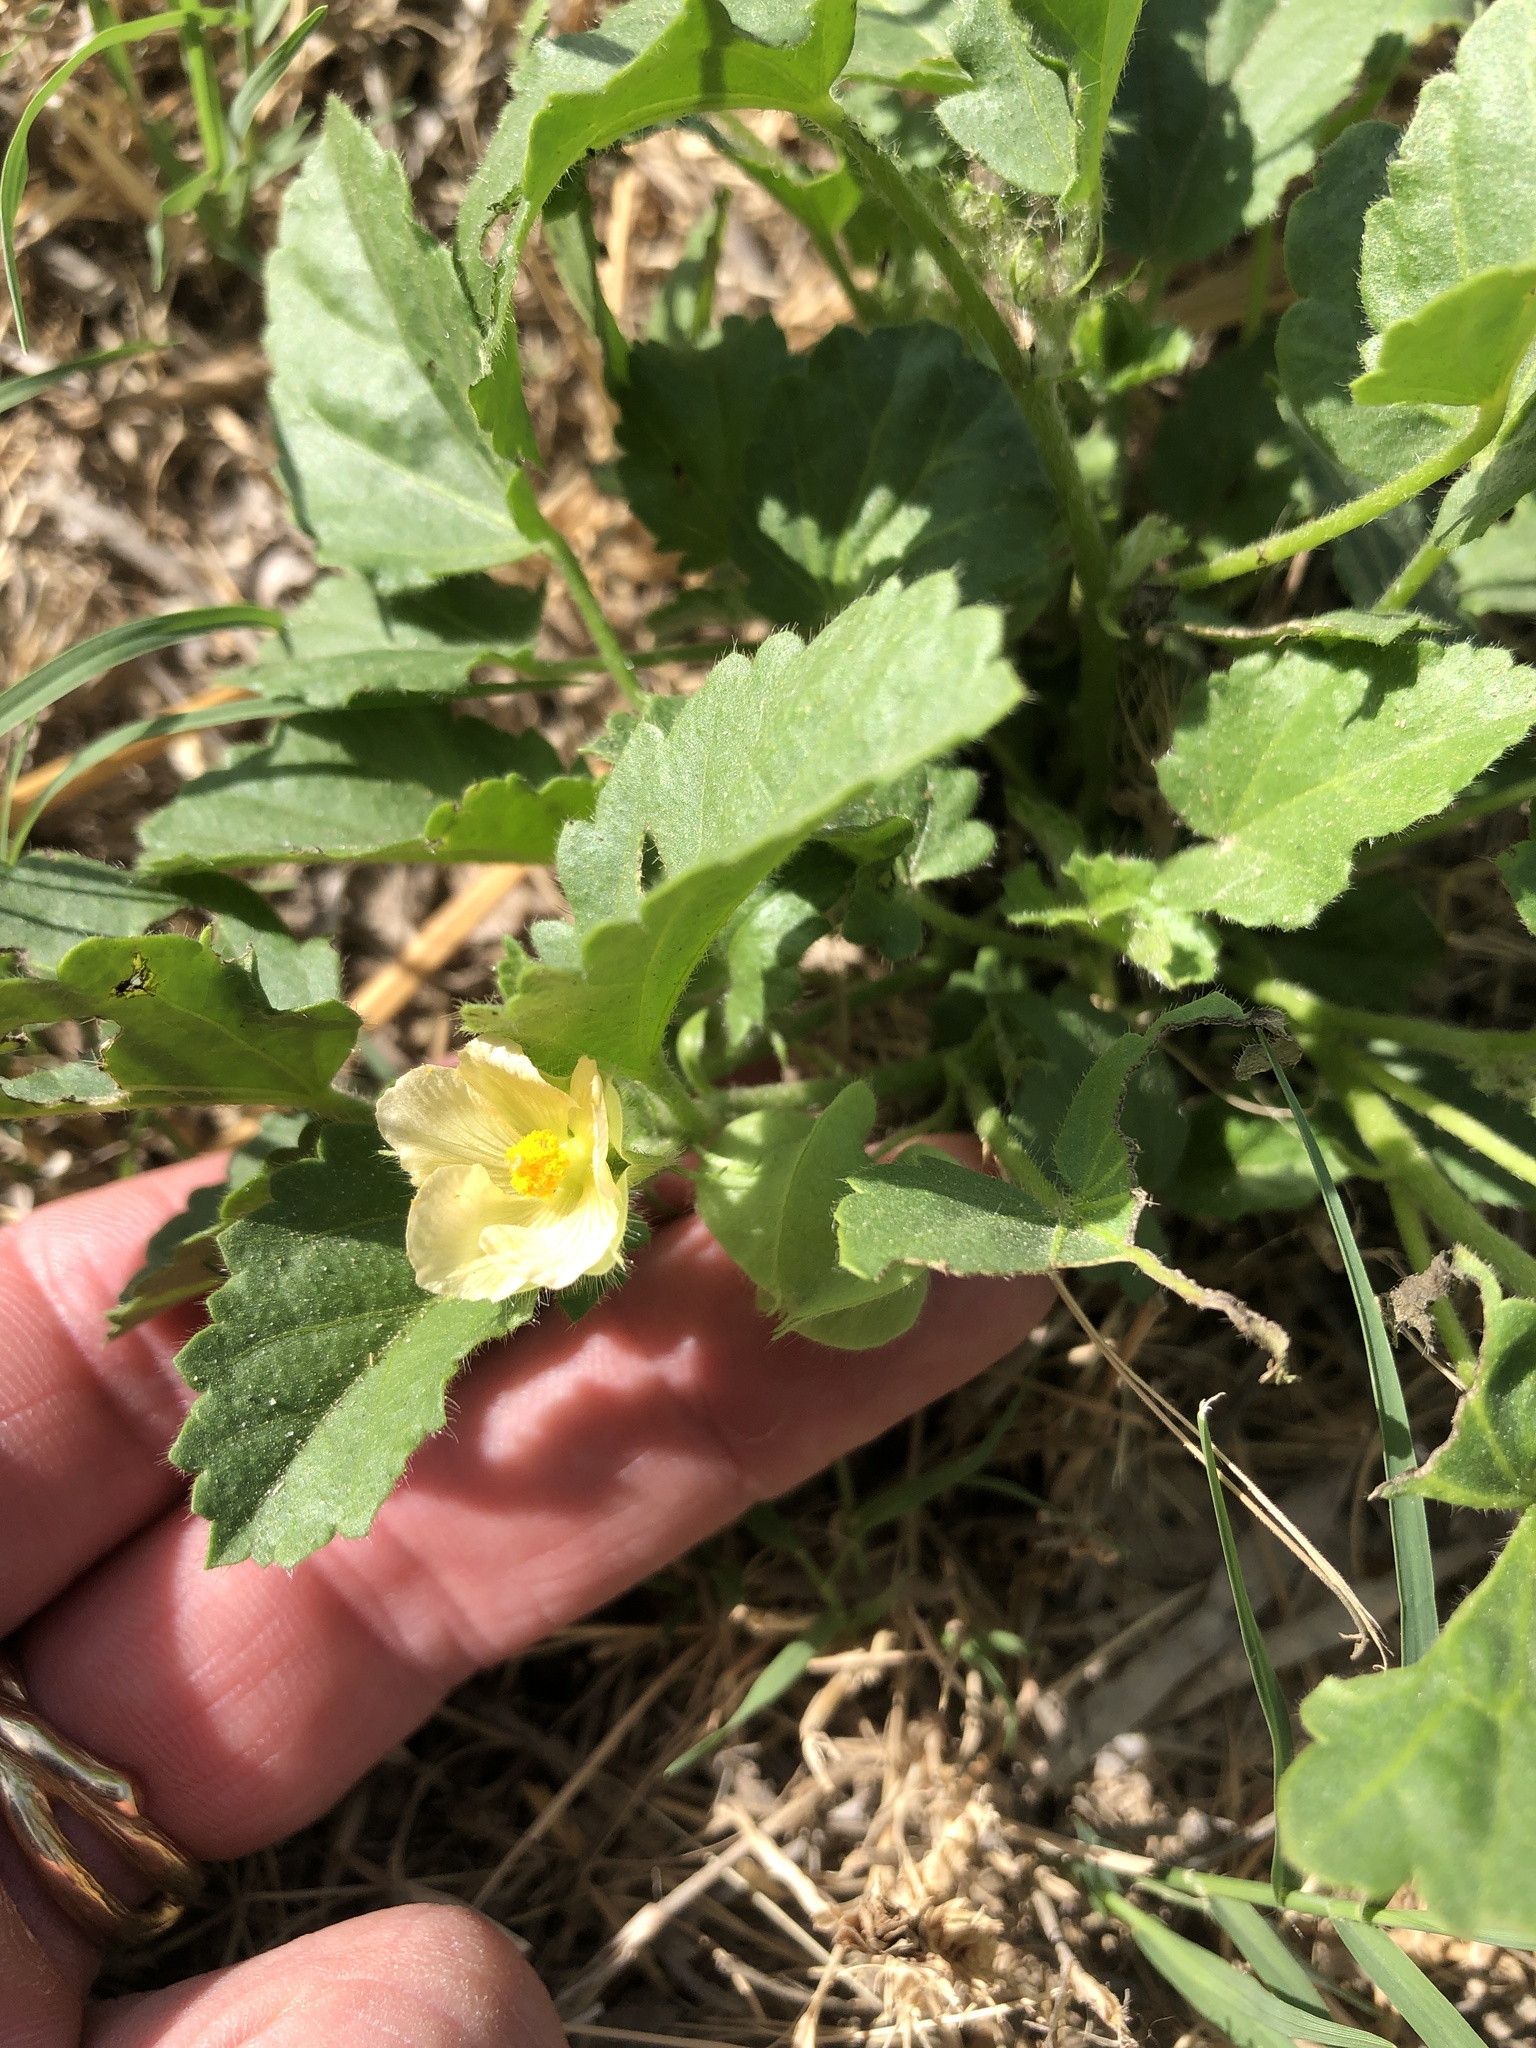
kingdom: Plantae
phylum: Tracheophyta
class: Magnoliopsida
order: Malvales
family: Malvaceae
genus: Rhynchosida
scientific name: Rhynchosida physocalyx
